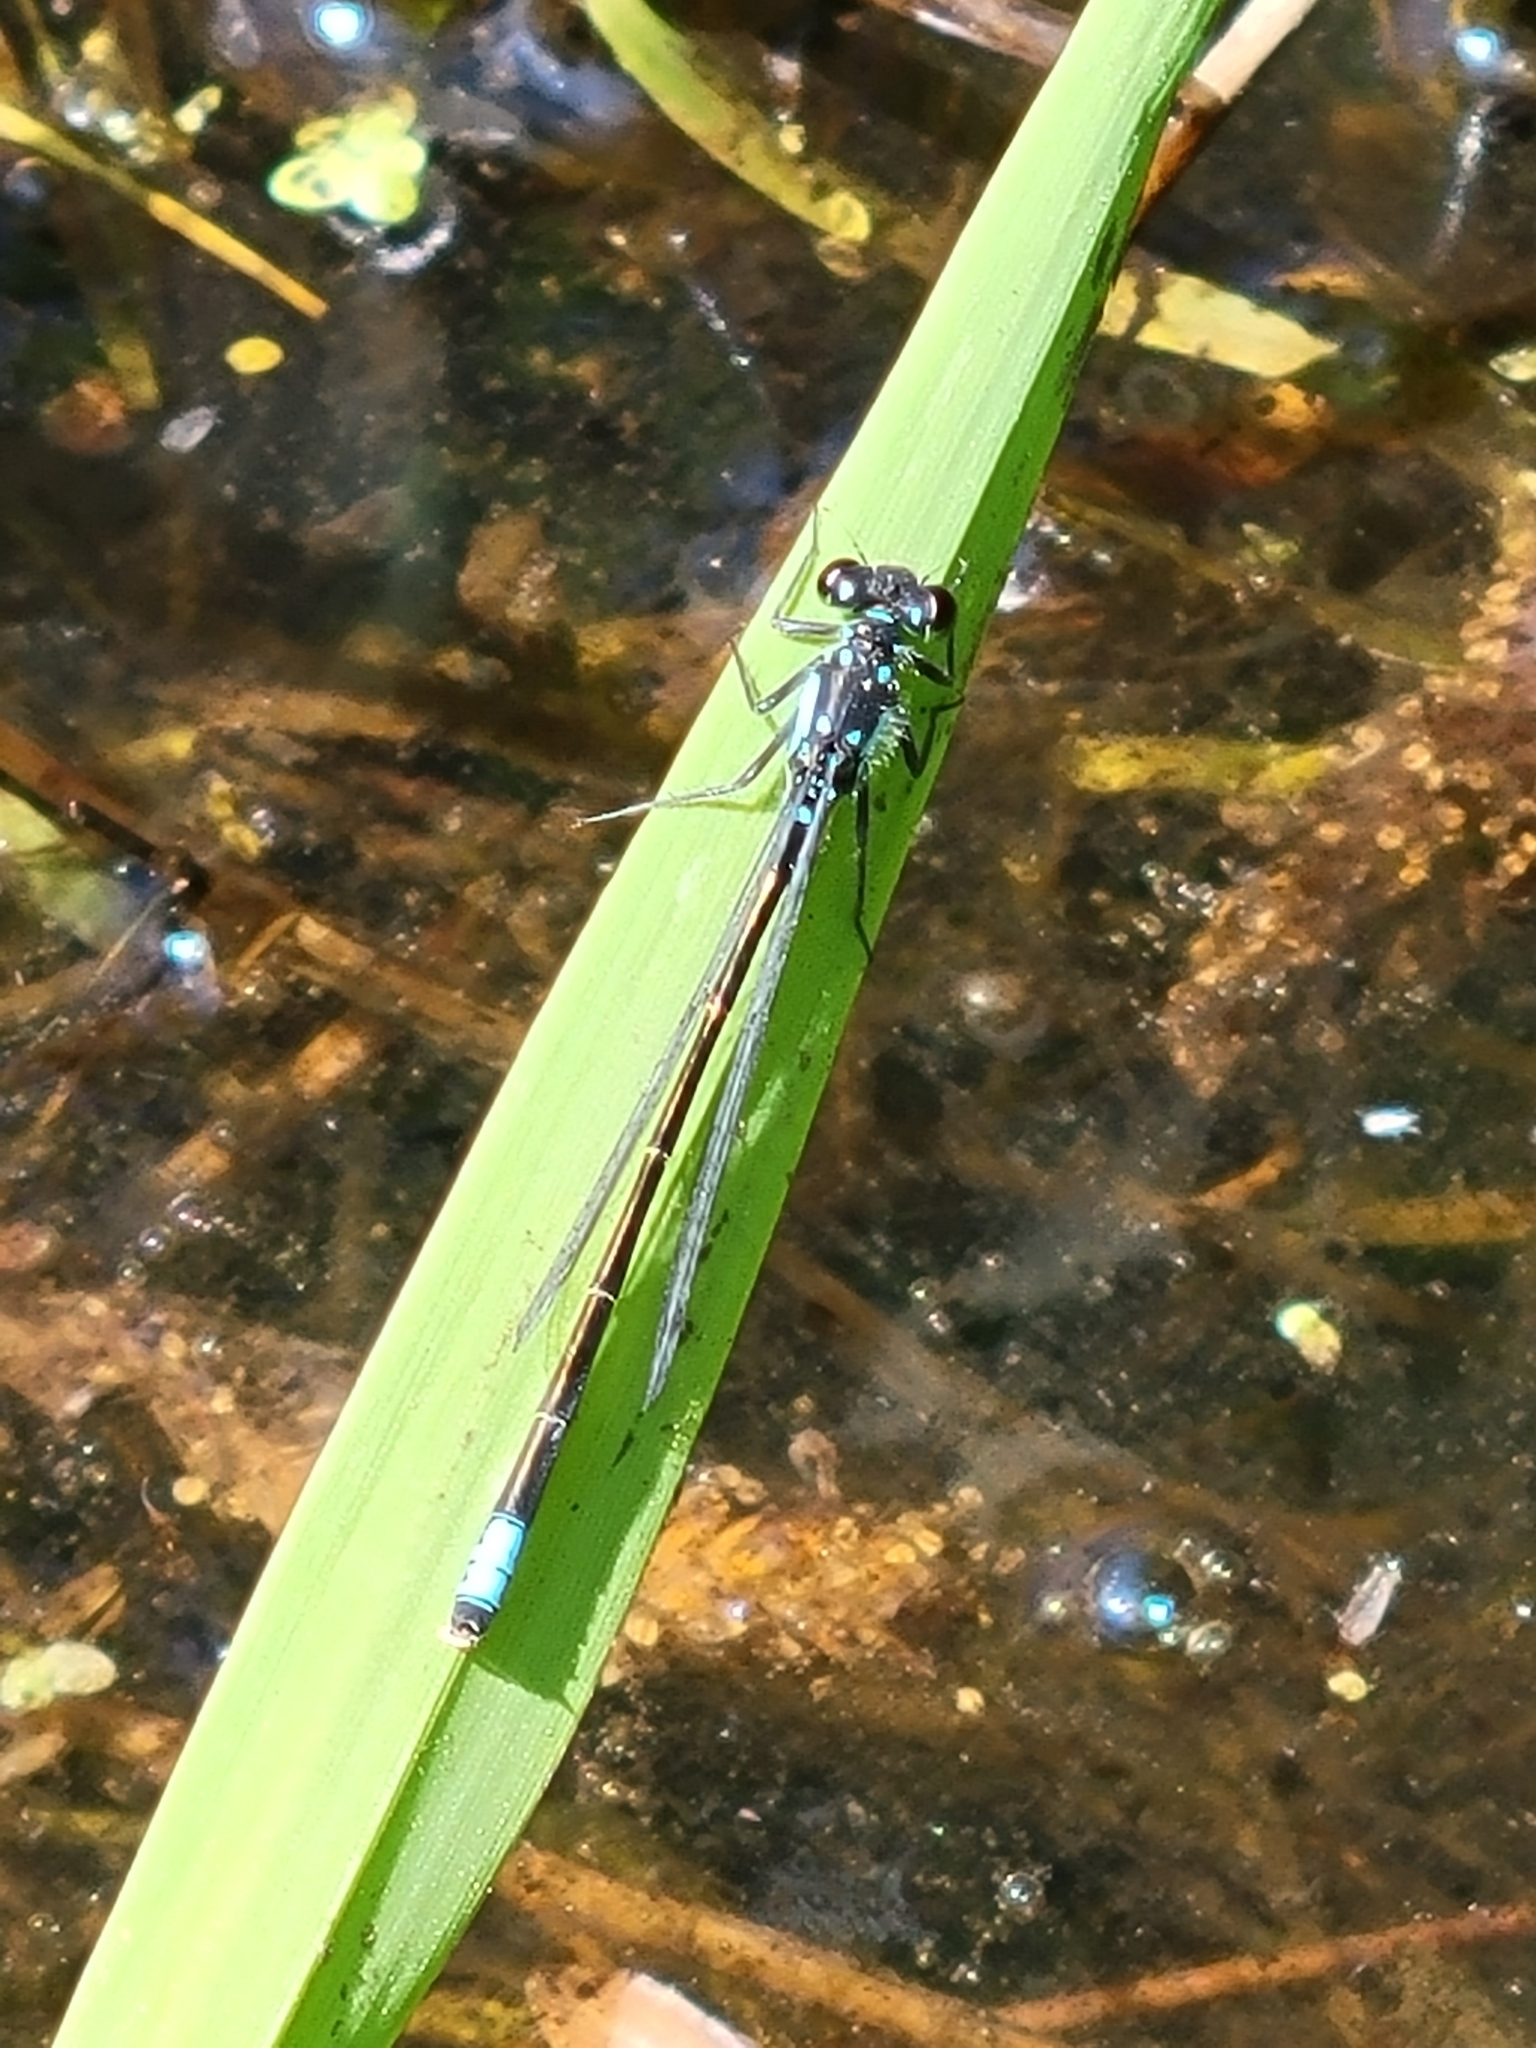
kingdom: Animalia
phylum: Arthropoda
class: Insecta
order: Odonata
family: Coenagrionidae
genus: Ischnura
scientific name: Ischnura cervula
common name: Pacific forktail
